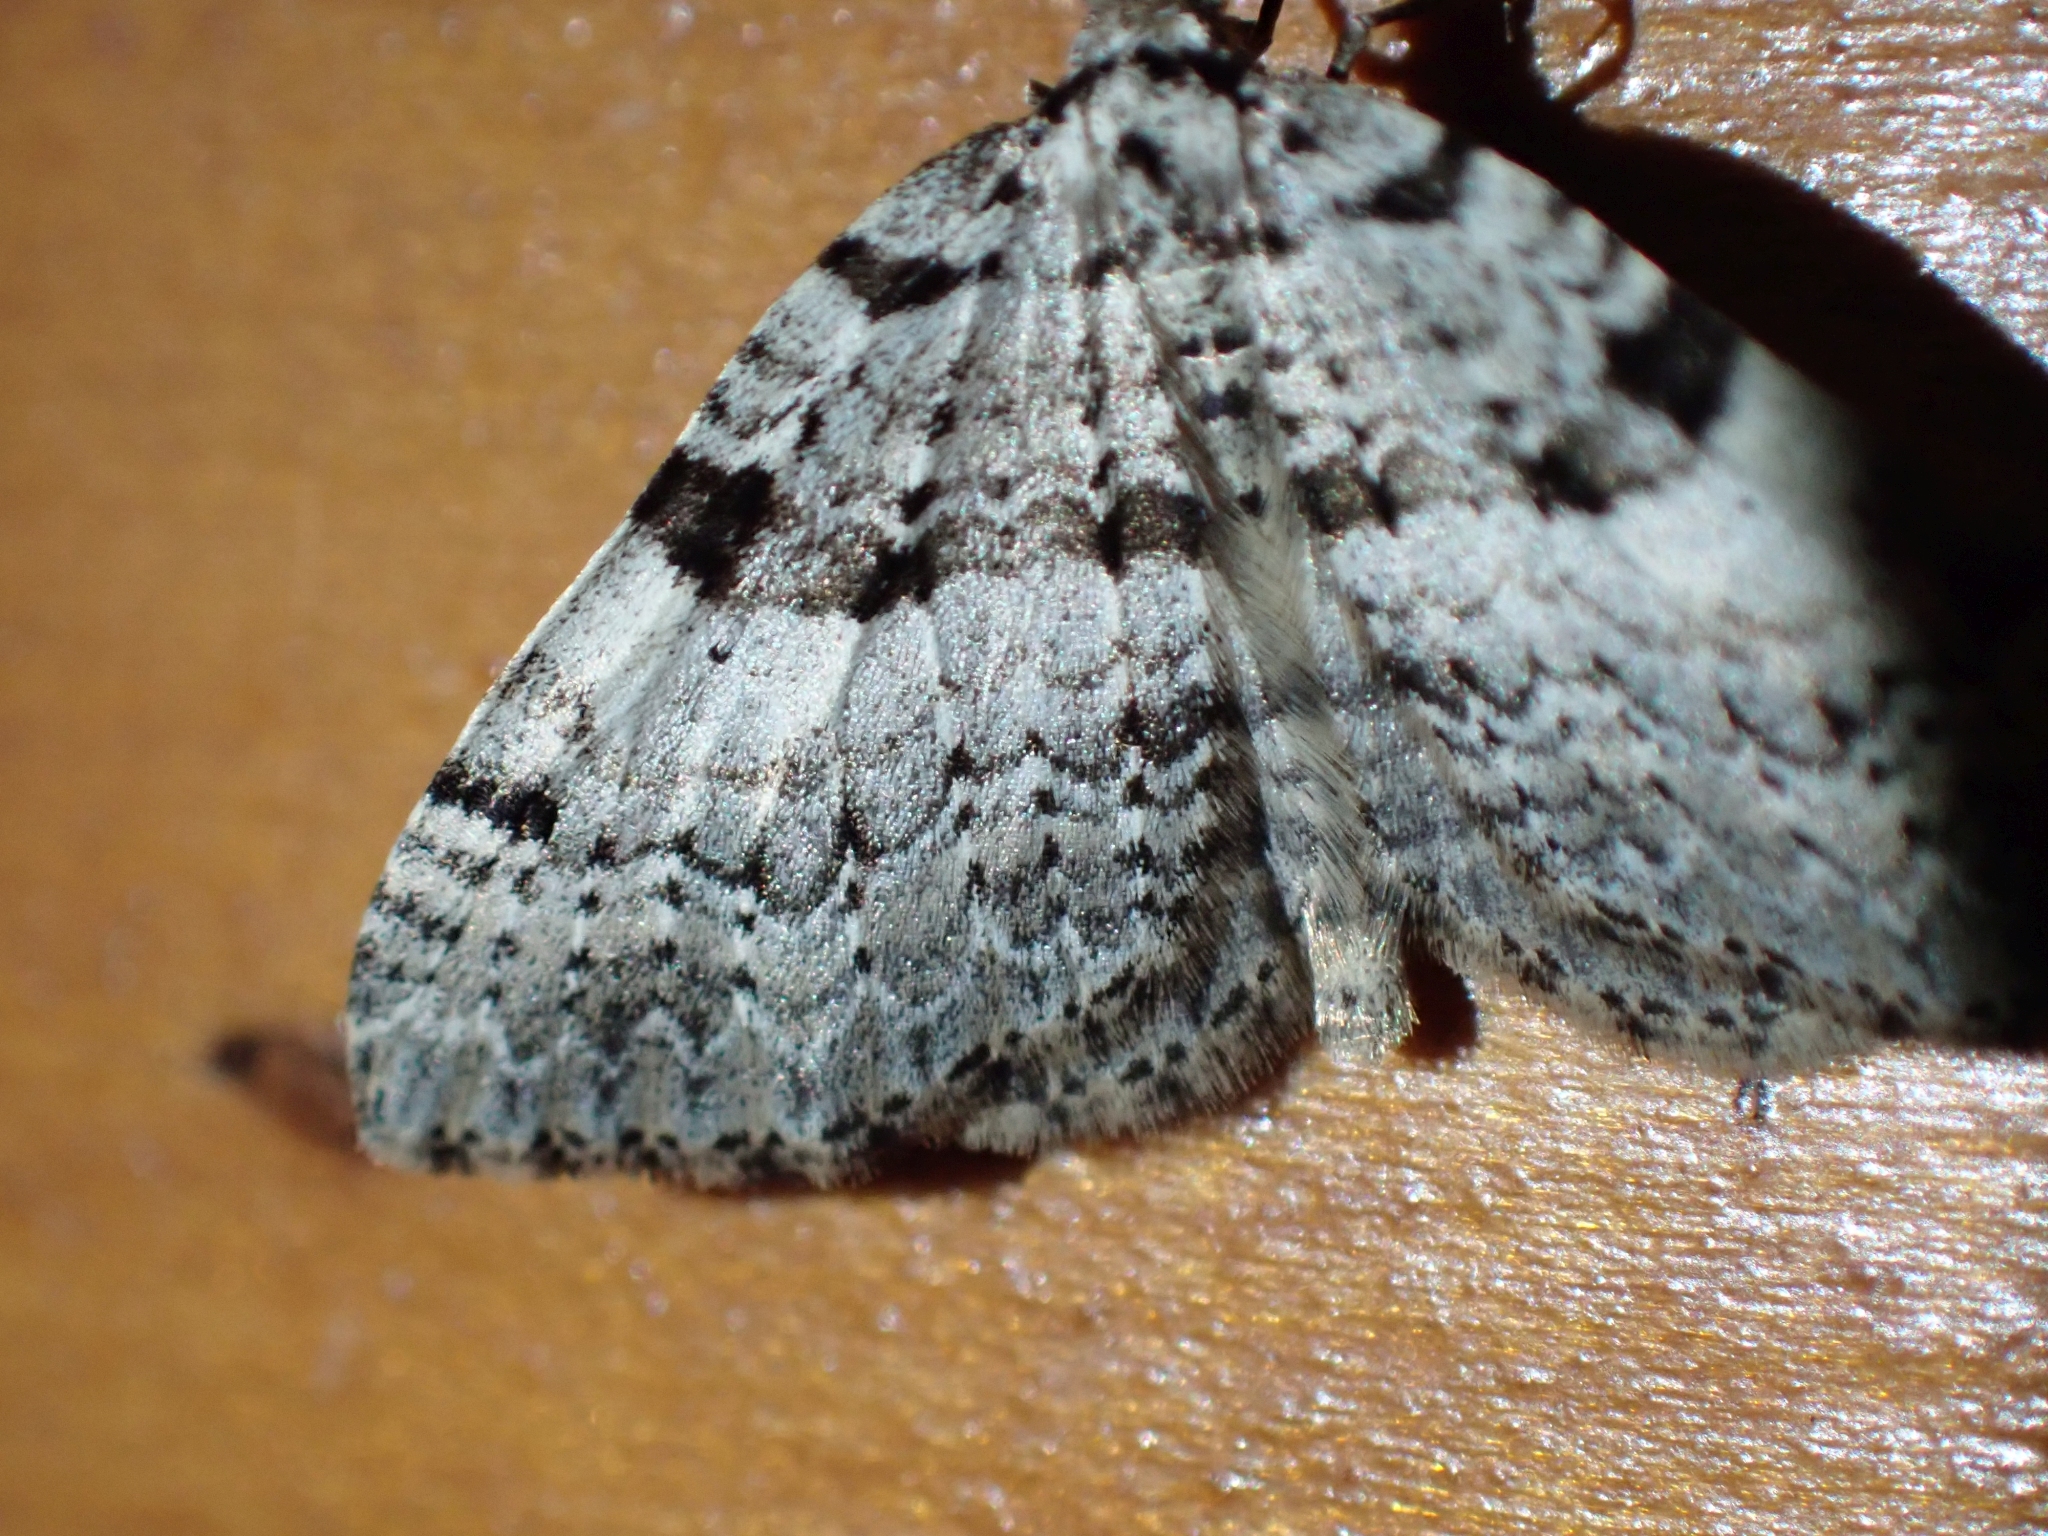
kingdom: Animalia
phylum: Arthropoda
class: Insecta
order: Lepidoptera
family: Geometridae
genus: Perizoma
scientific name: Perizoma curvilinea
